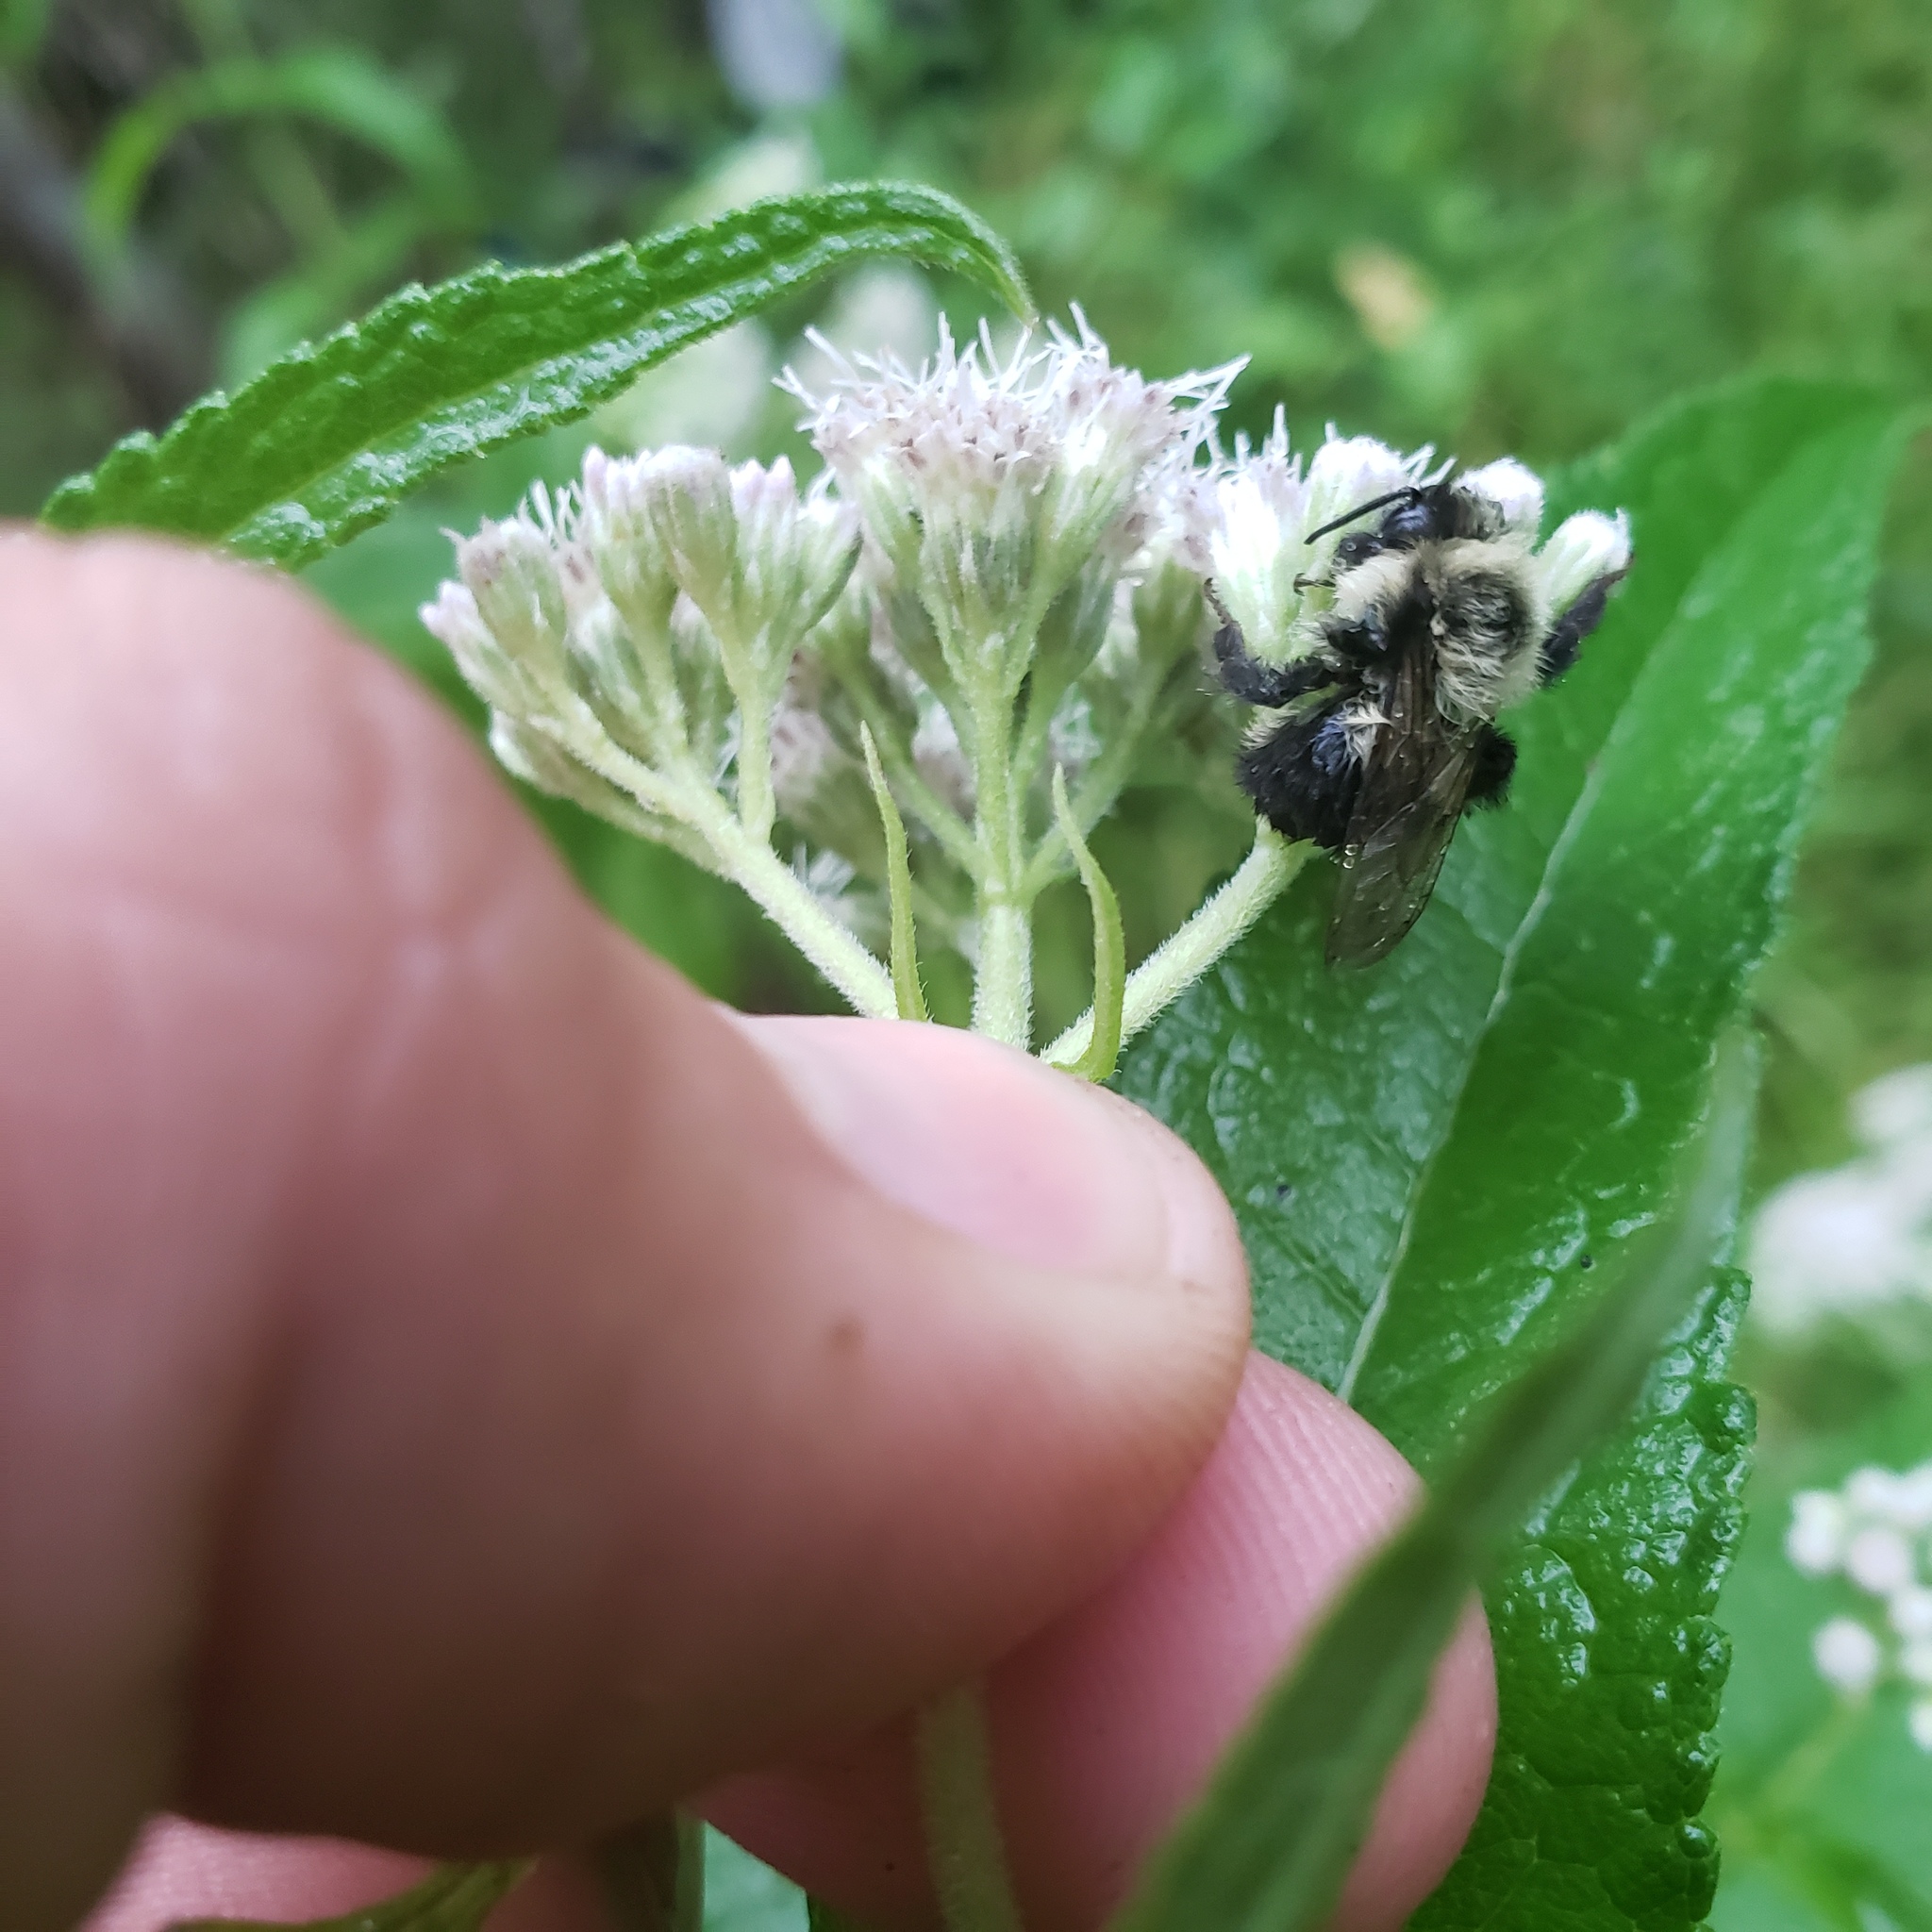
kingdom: Animalia
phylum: Arthropoda
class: Insecta
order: Hymenoptera
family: Apidae
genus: Bombus
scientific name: Bombus impatiens
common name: Common eastern bumble bee
